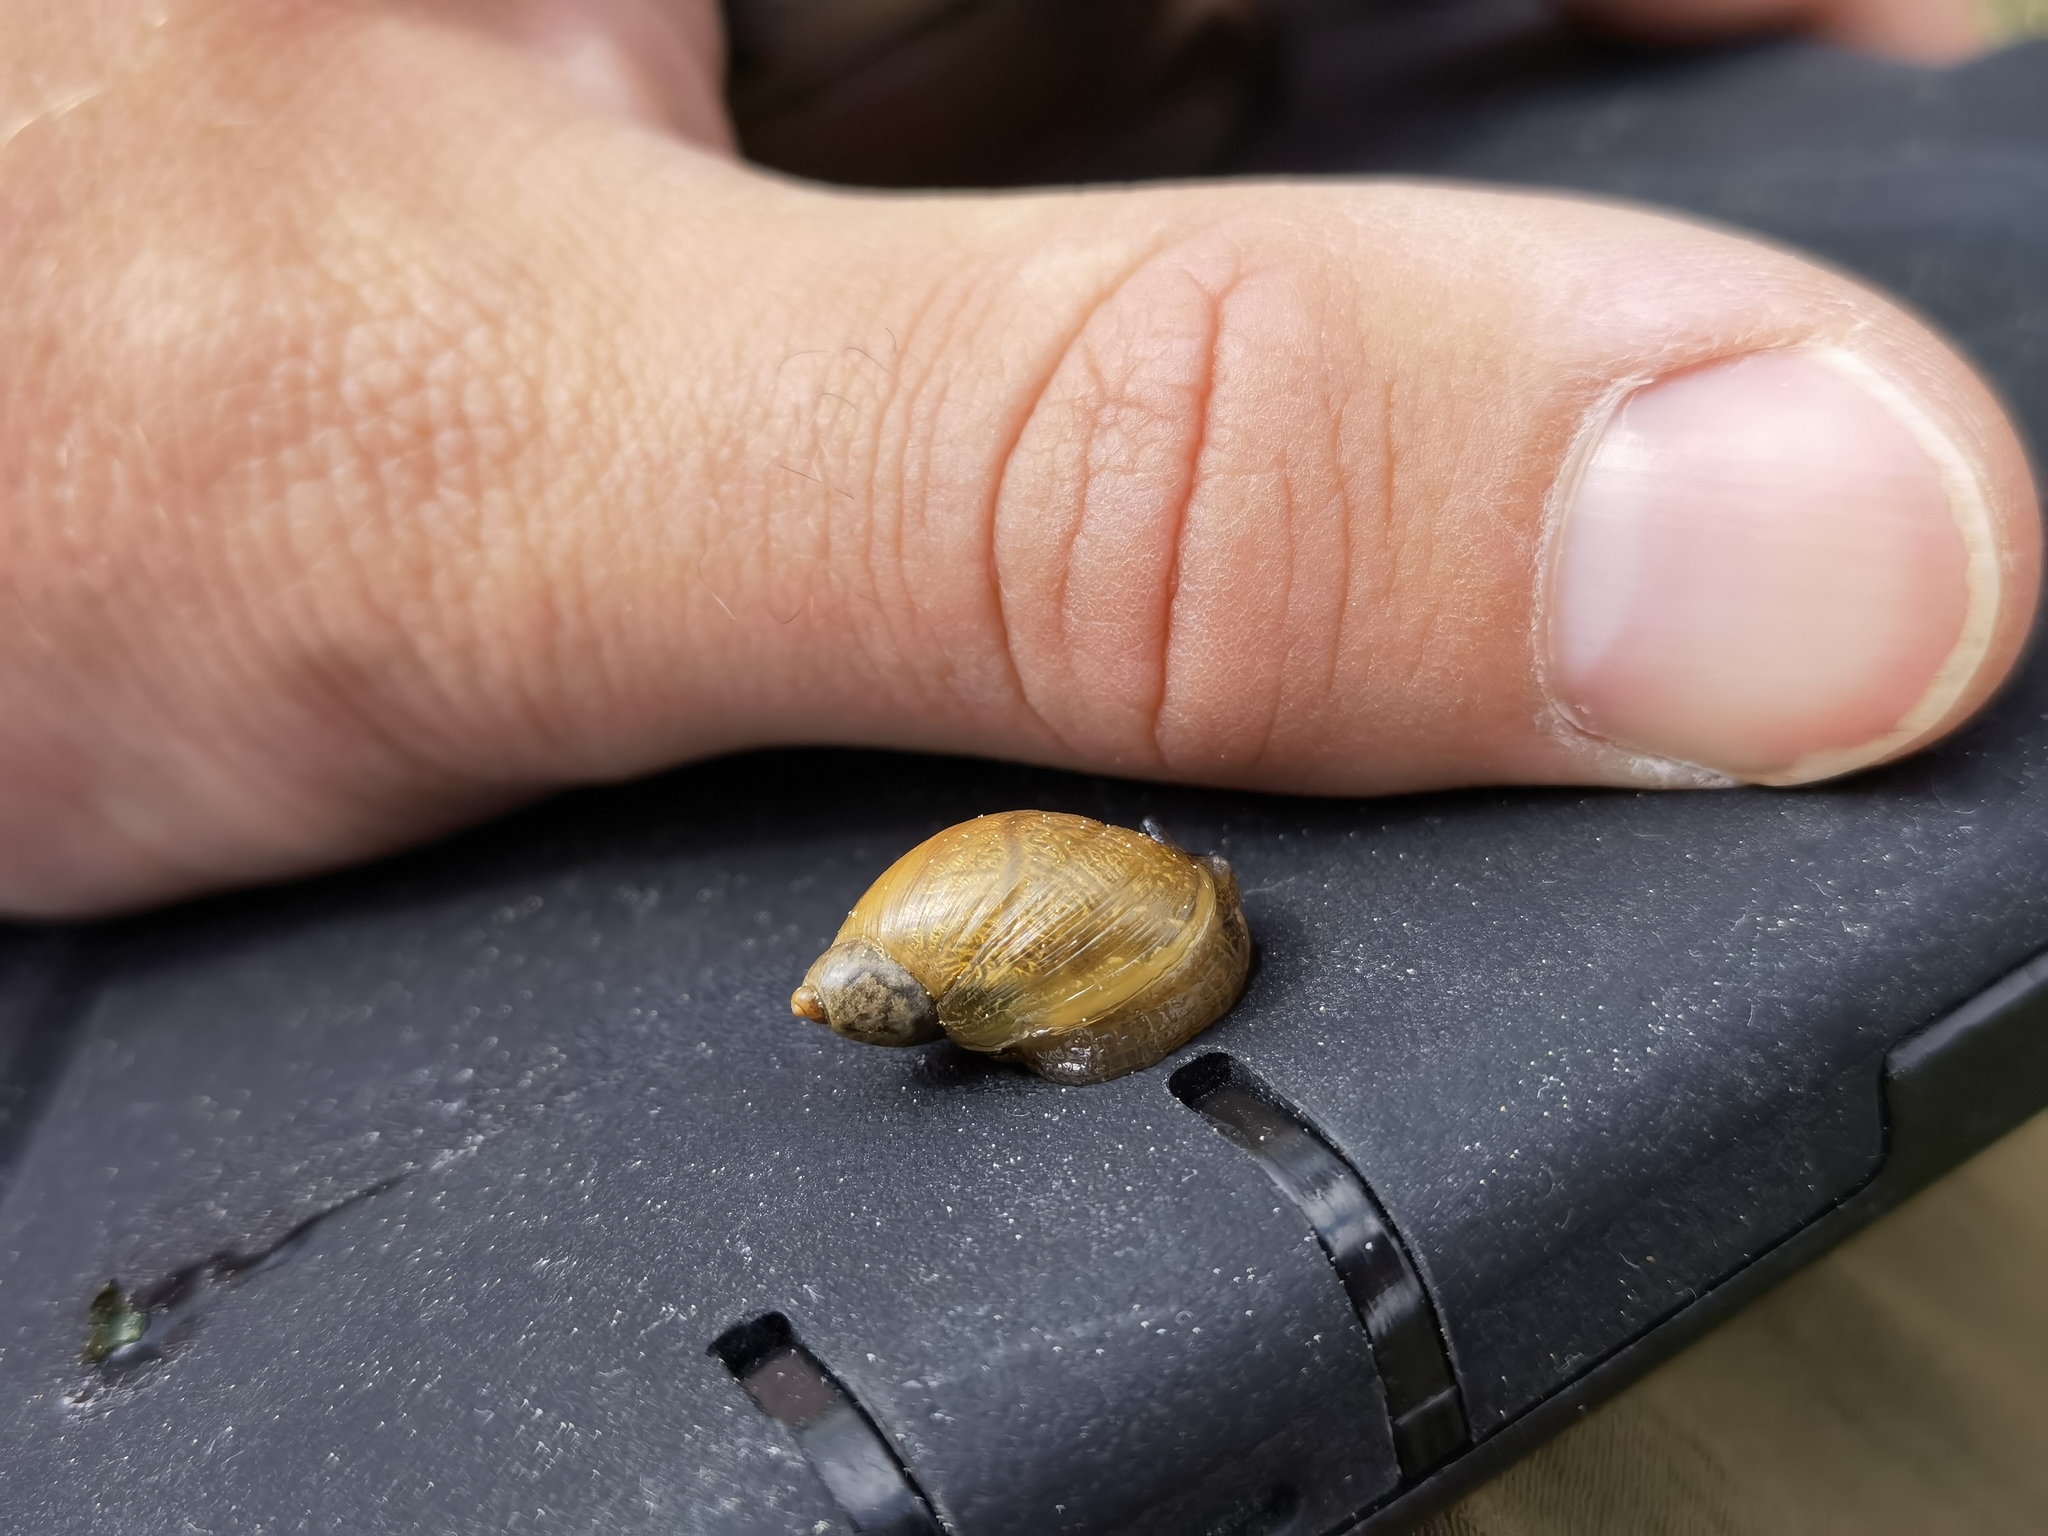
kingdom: Animalia
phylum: Mollusca
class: Gastropoda
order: Stylommatophora
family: Succineidae
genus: Succinea
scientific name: Succinea putris
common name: European ambersnail
